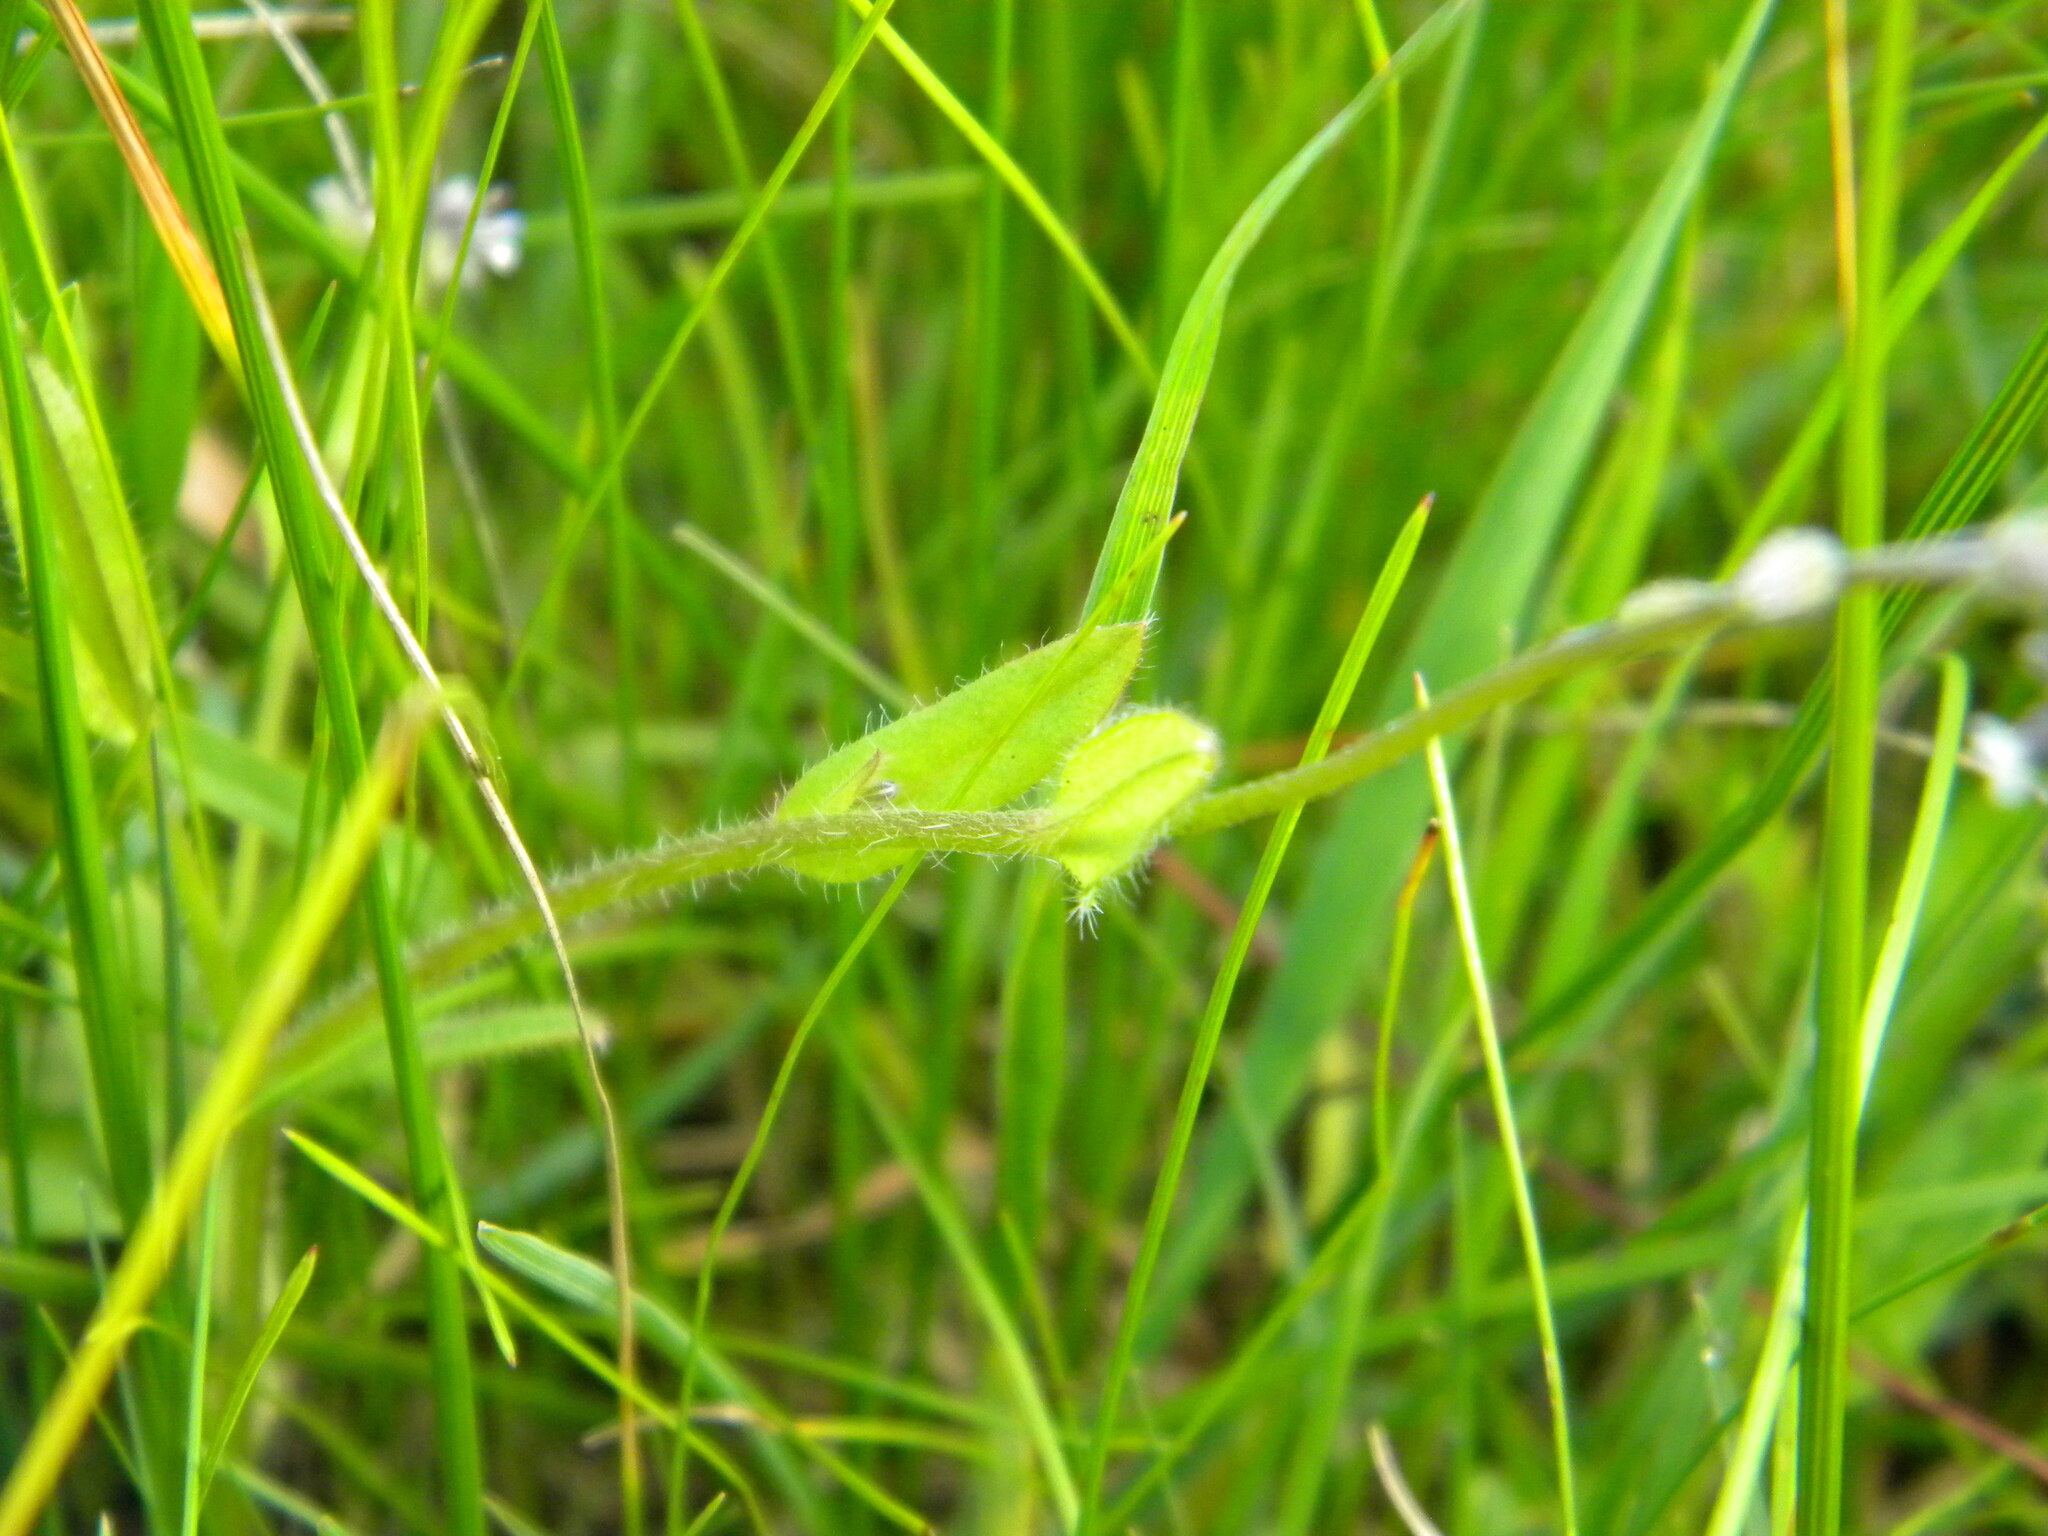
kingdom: Plantae
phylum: Tracheophyta
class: Magnoliopsida
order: Boraginales
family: Boraginaceae
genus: Myosotis
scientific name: Myosotis discolor
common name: Changing forget-me-not
